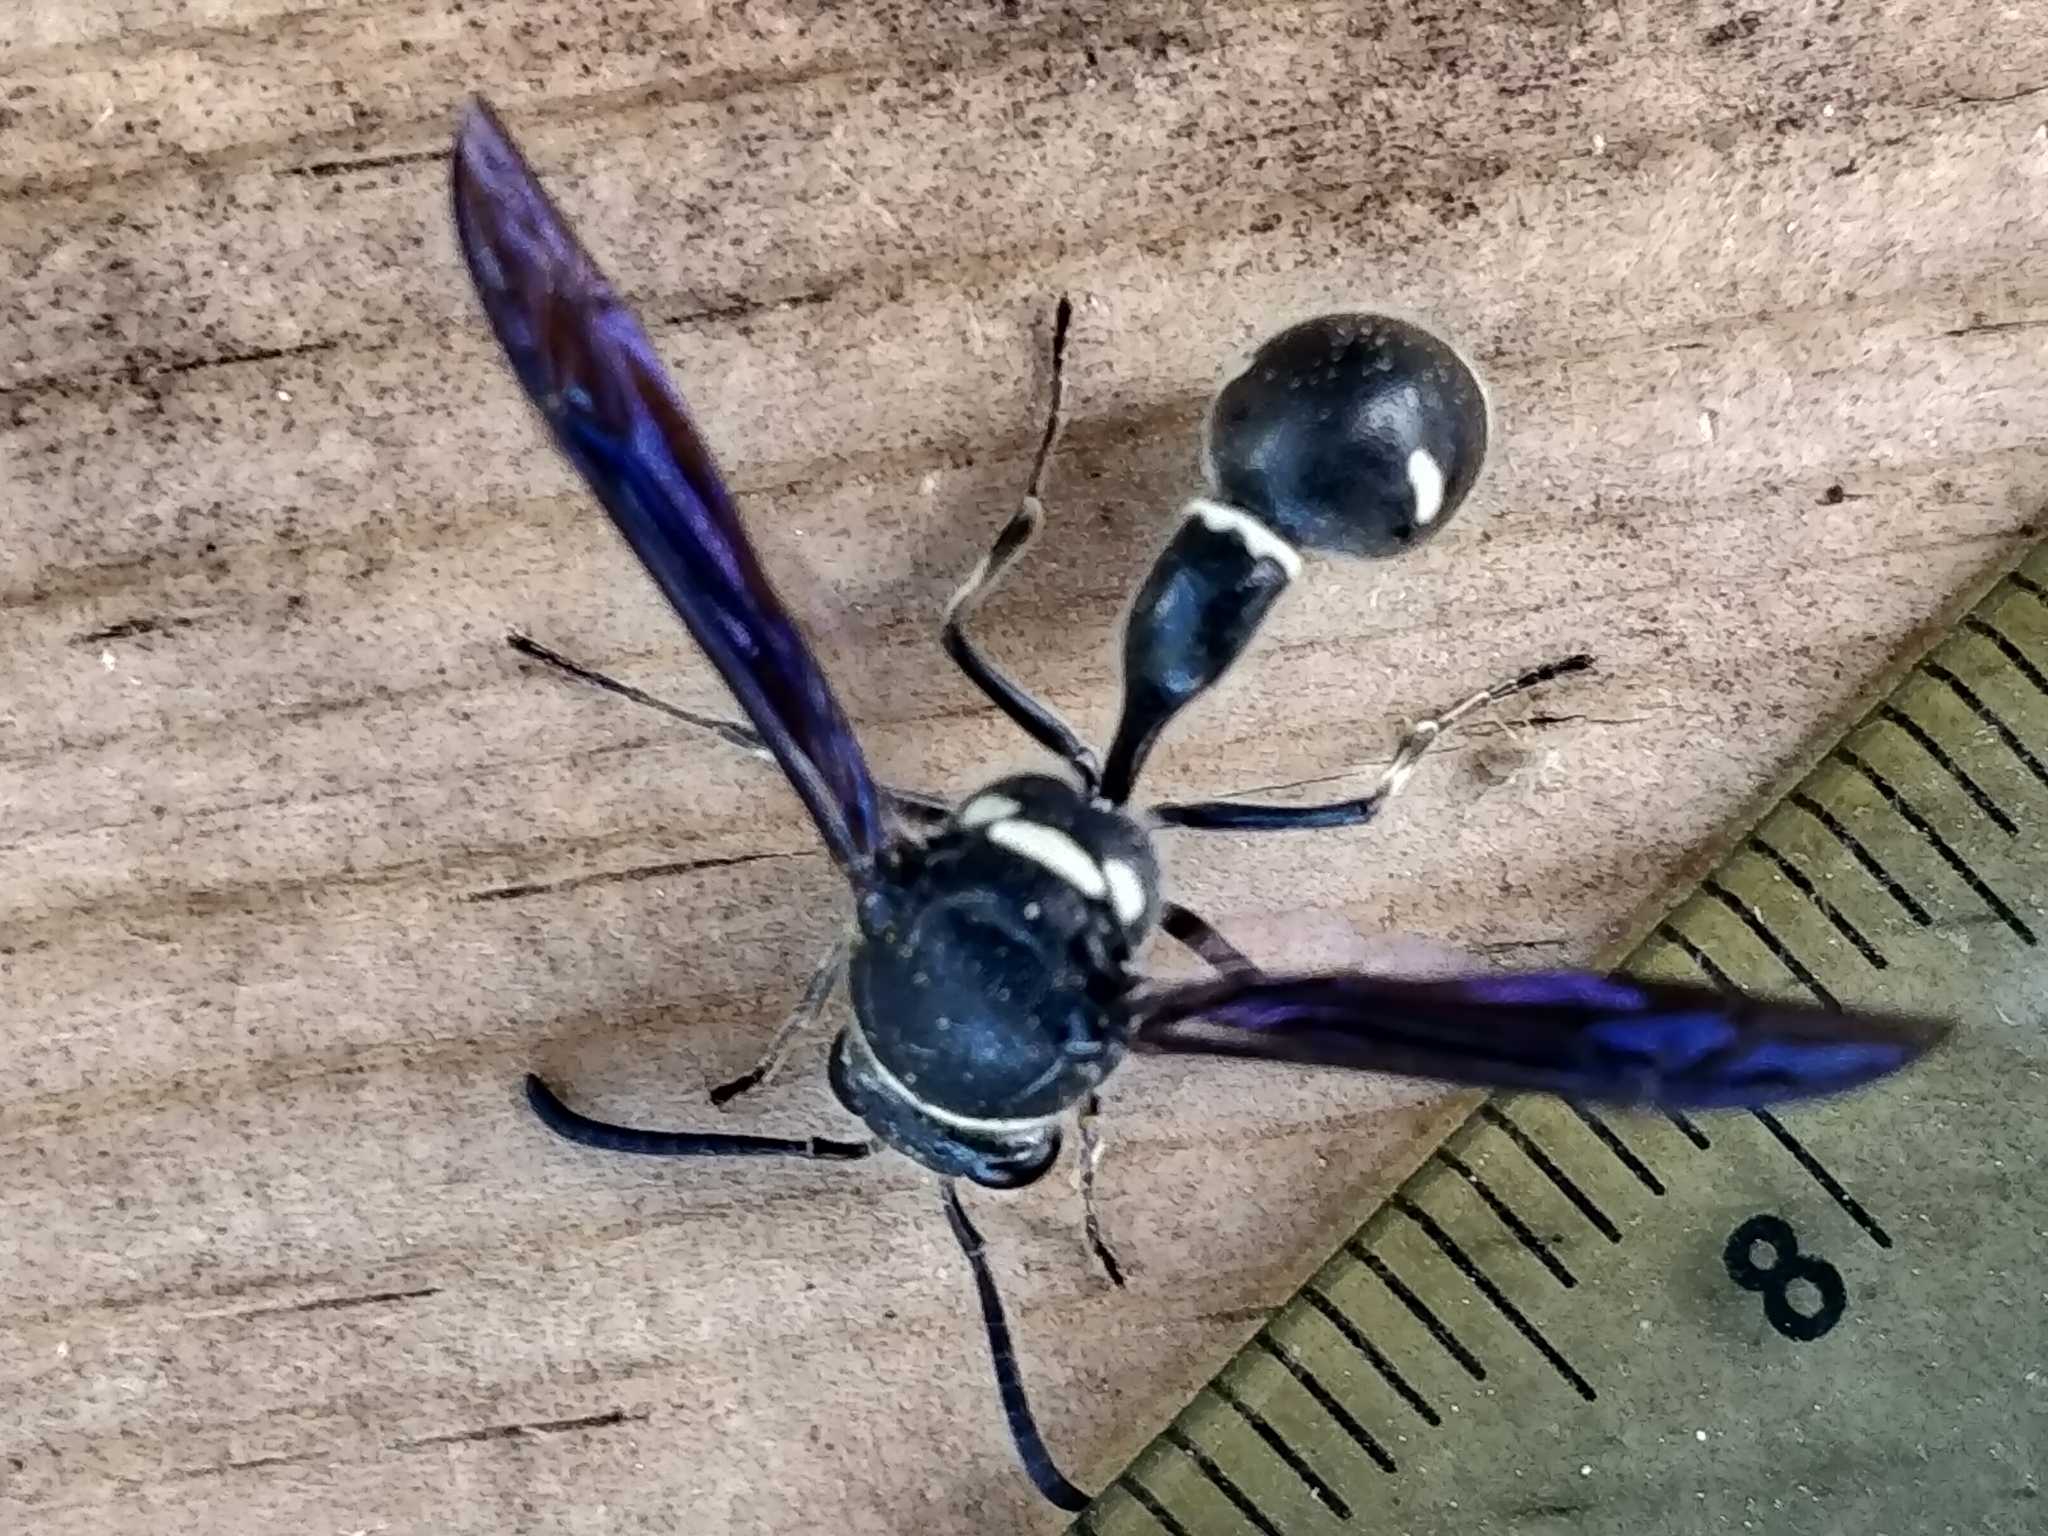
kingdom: Animalia
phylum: Arthropoda
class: Insecta
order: Hymenoptera
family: Vespidae
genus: Eumenes
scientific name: Eumenes fraternus
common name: Fraternal potter wasp
